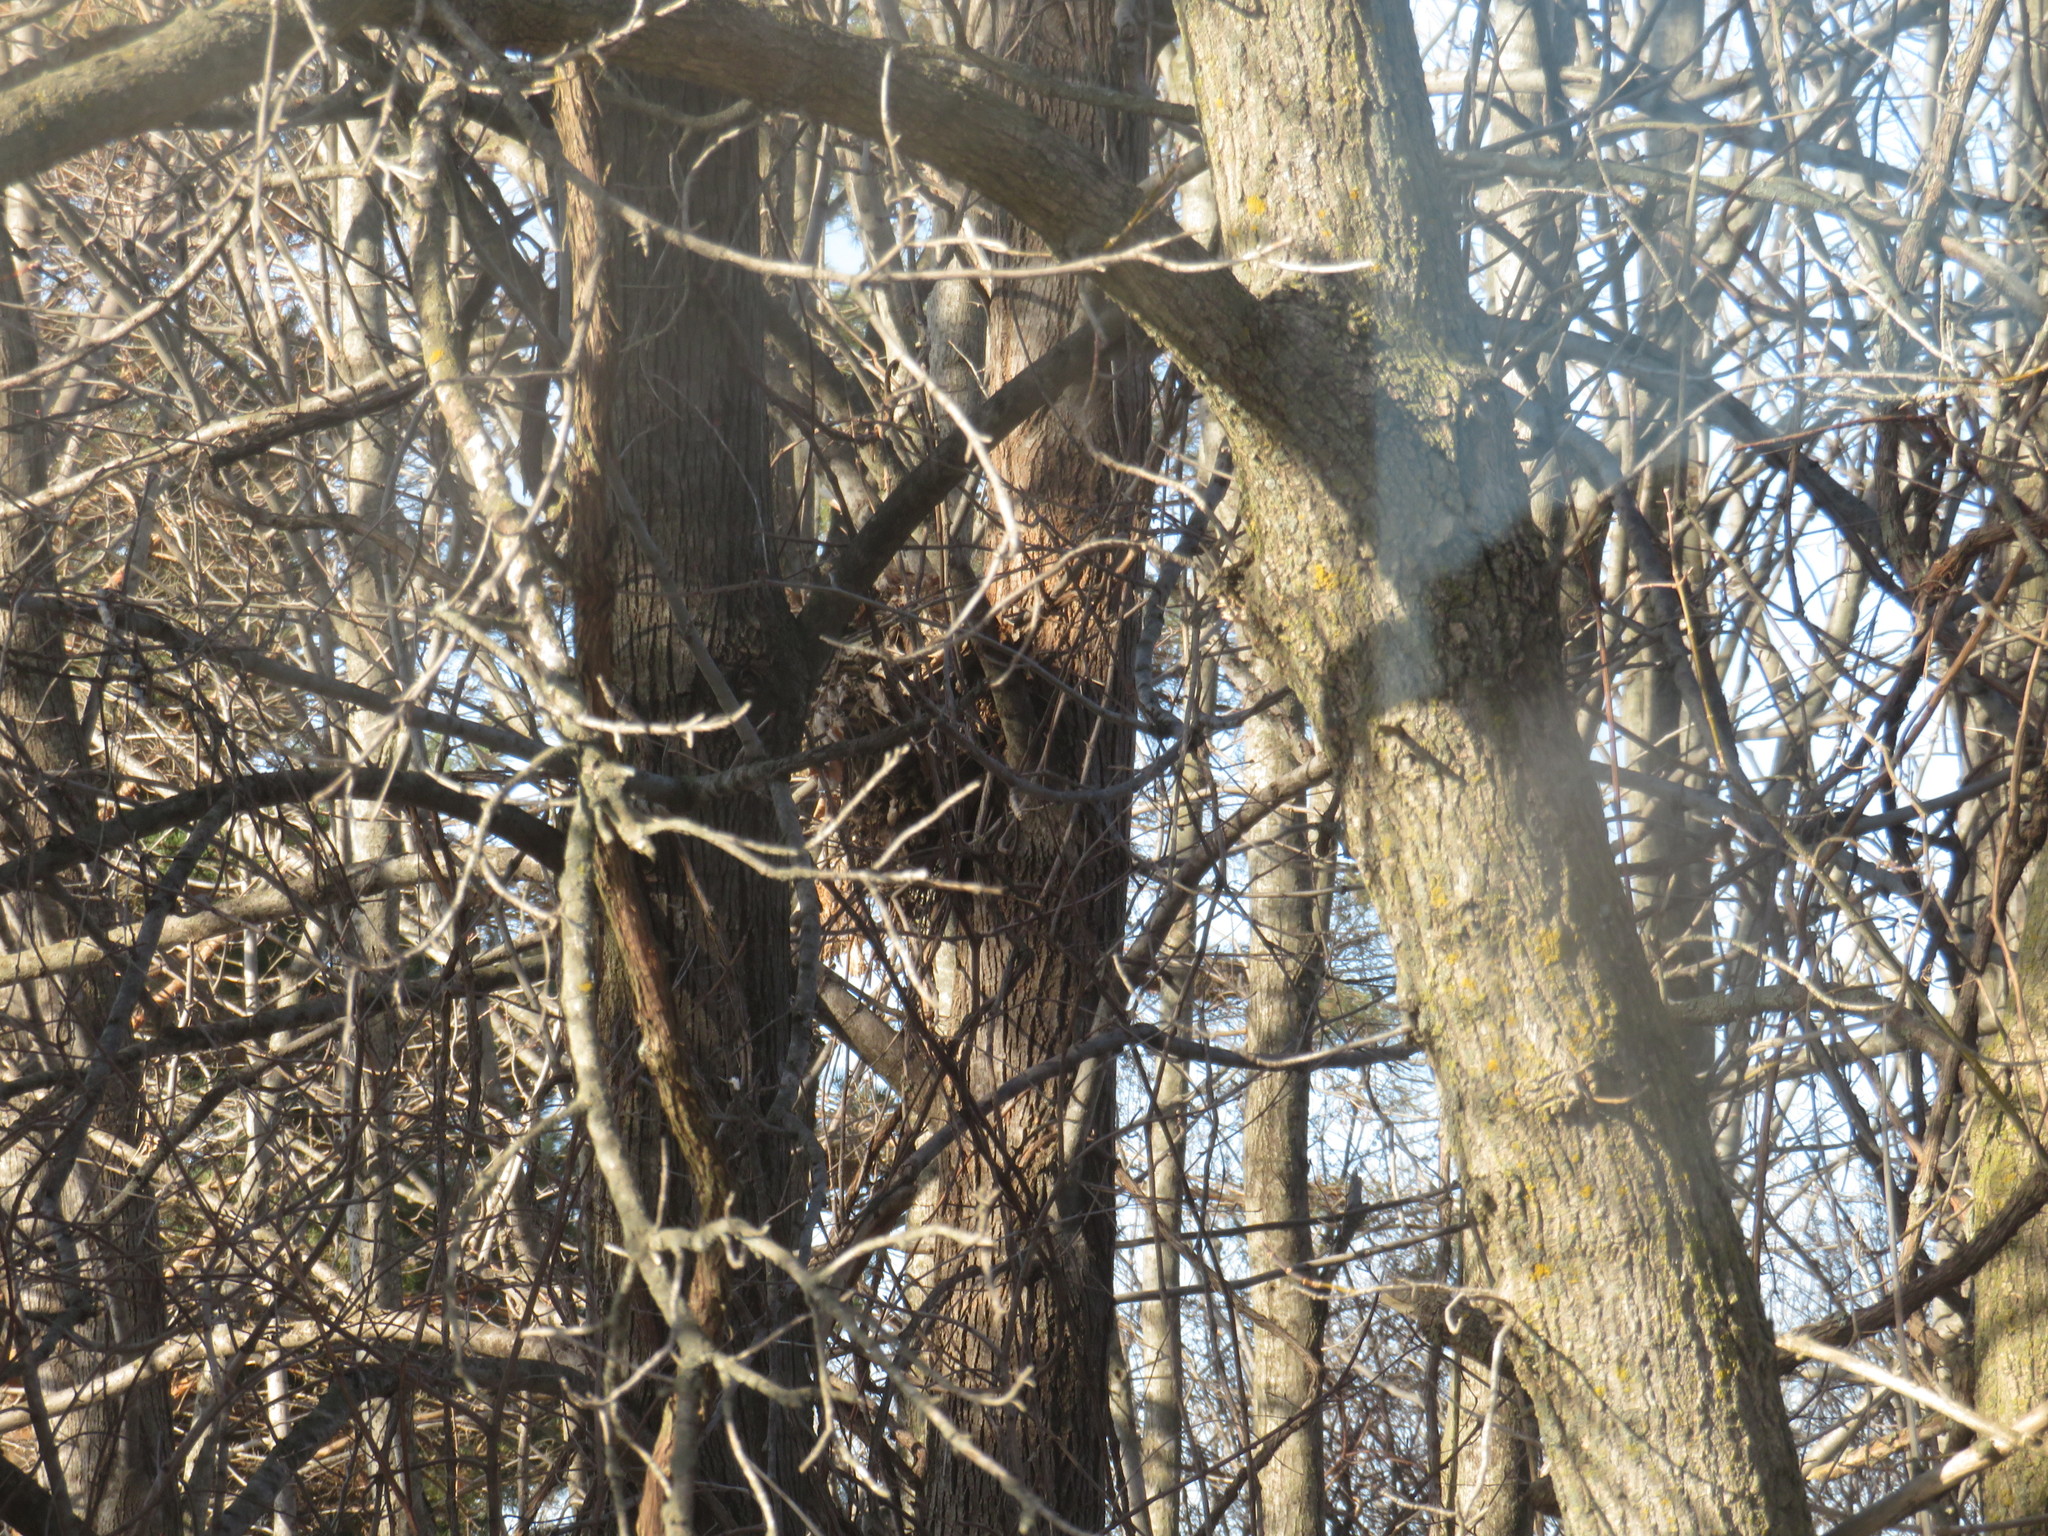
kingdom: Animalia
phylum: Chordata
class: Mammalia
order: Rodentia
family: Sciuridae
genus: Sciurus
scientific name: Sciurus carolinensis
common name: Eastern gray squirrel
